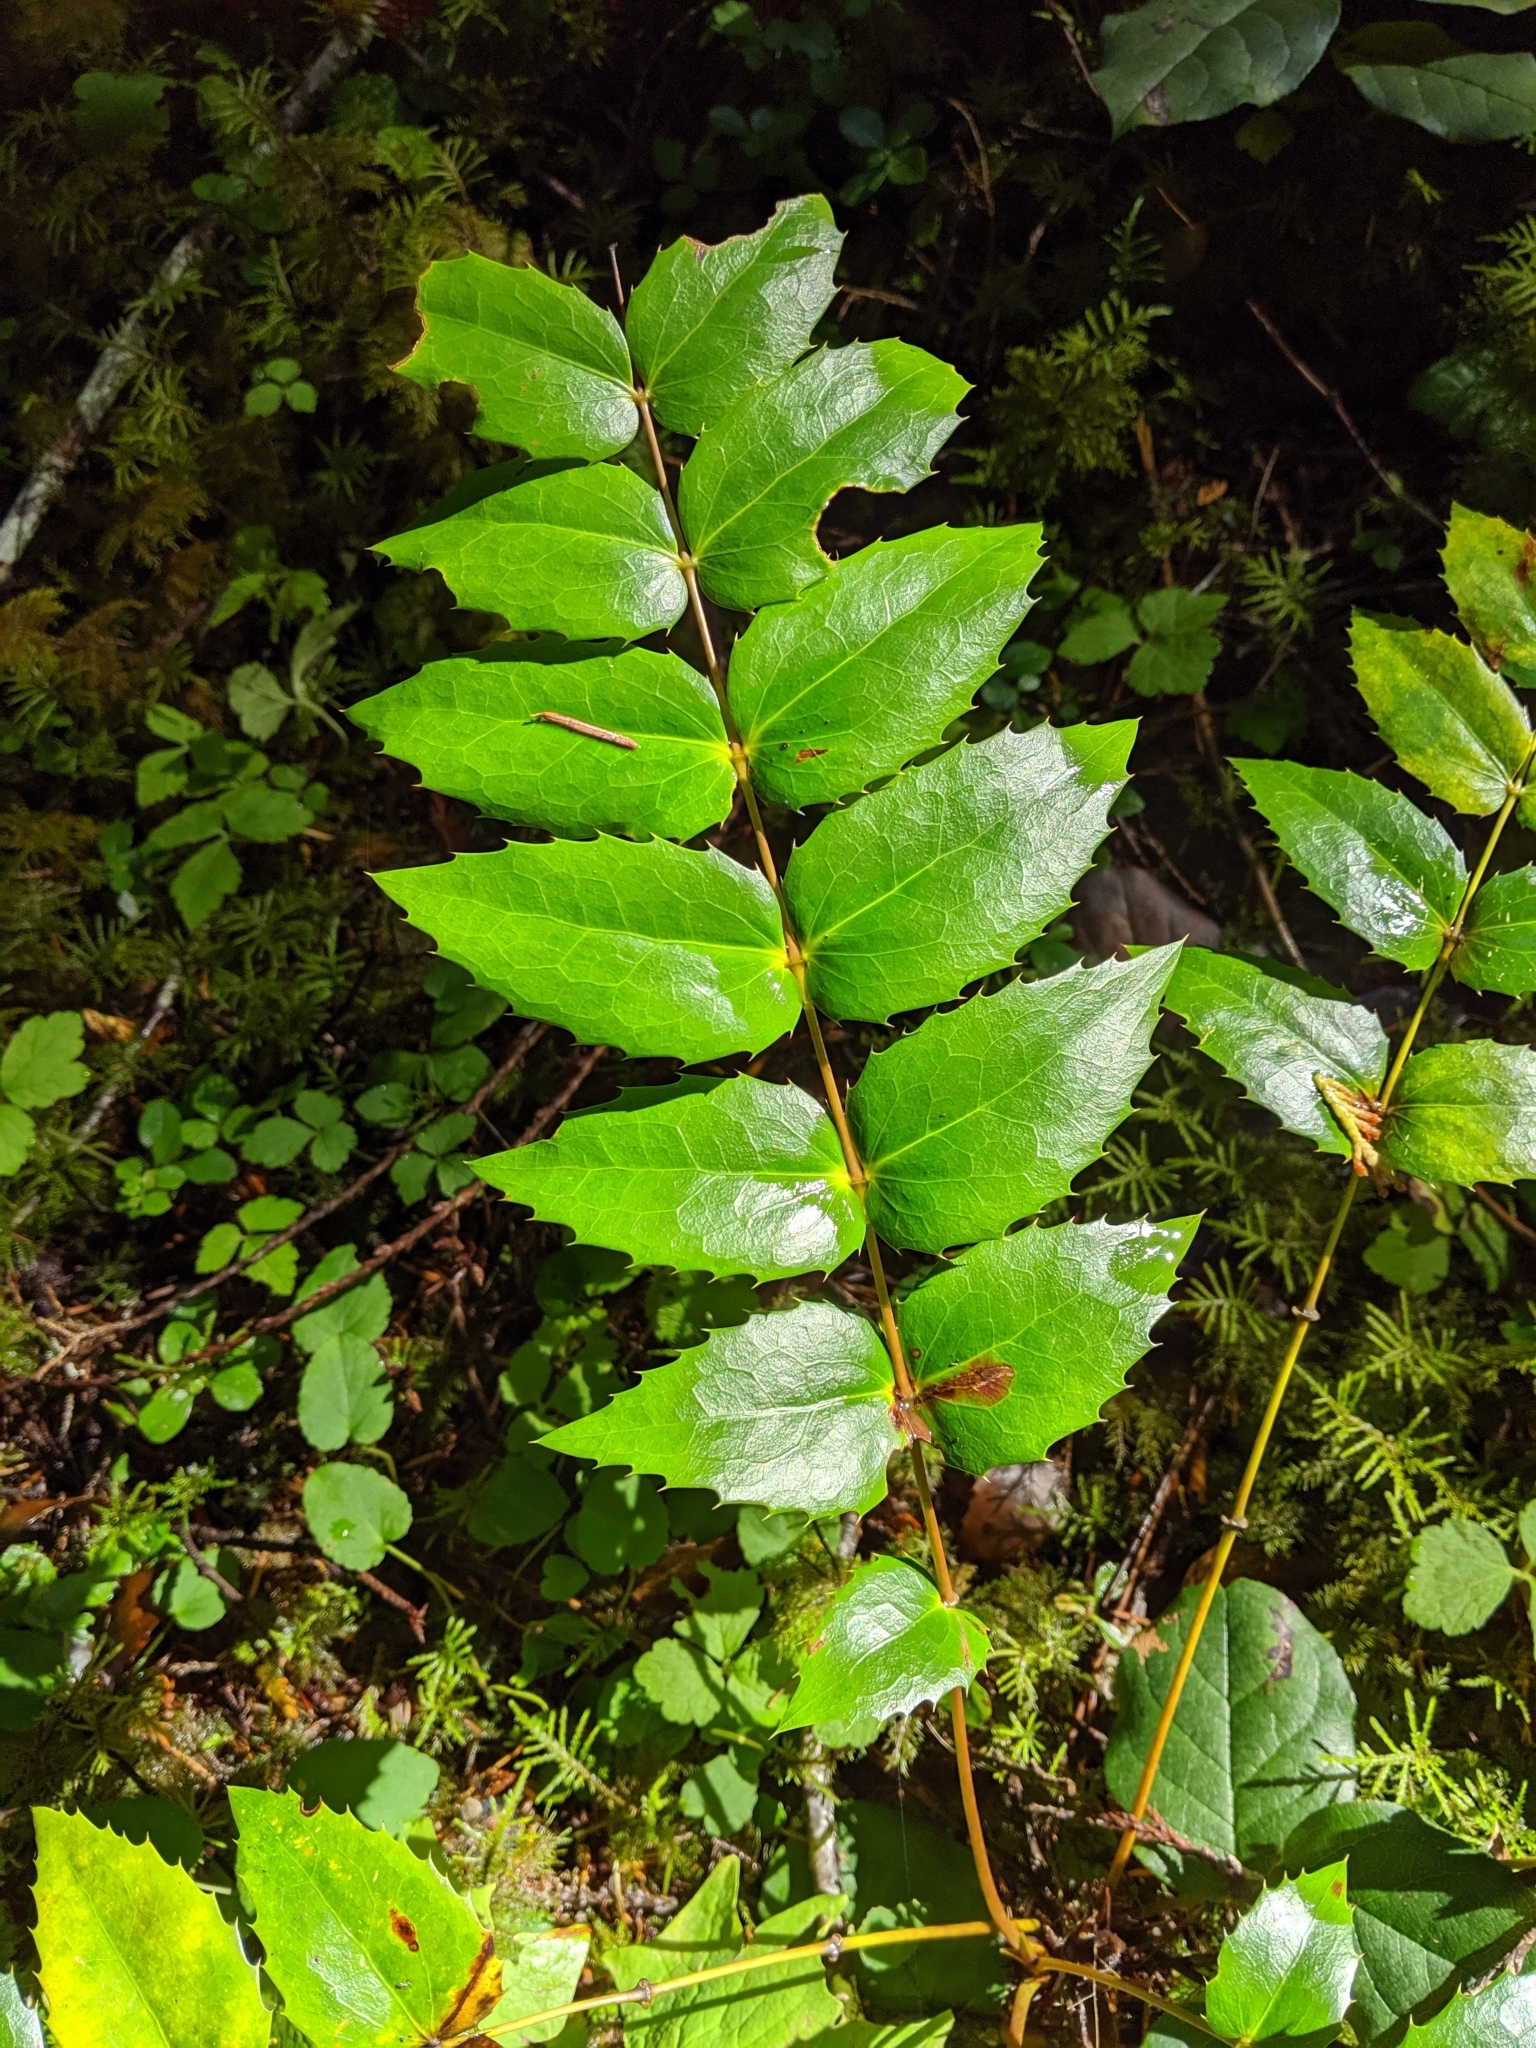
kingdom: Plantae
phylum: Tracheophyta
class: Magnoliopsida
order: Ranunculales
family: Berberidaceae
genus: Mahonia
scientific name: Mahonia nervosa
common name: Cascade oregon-grape
